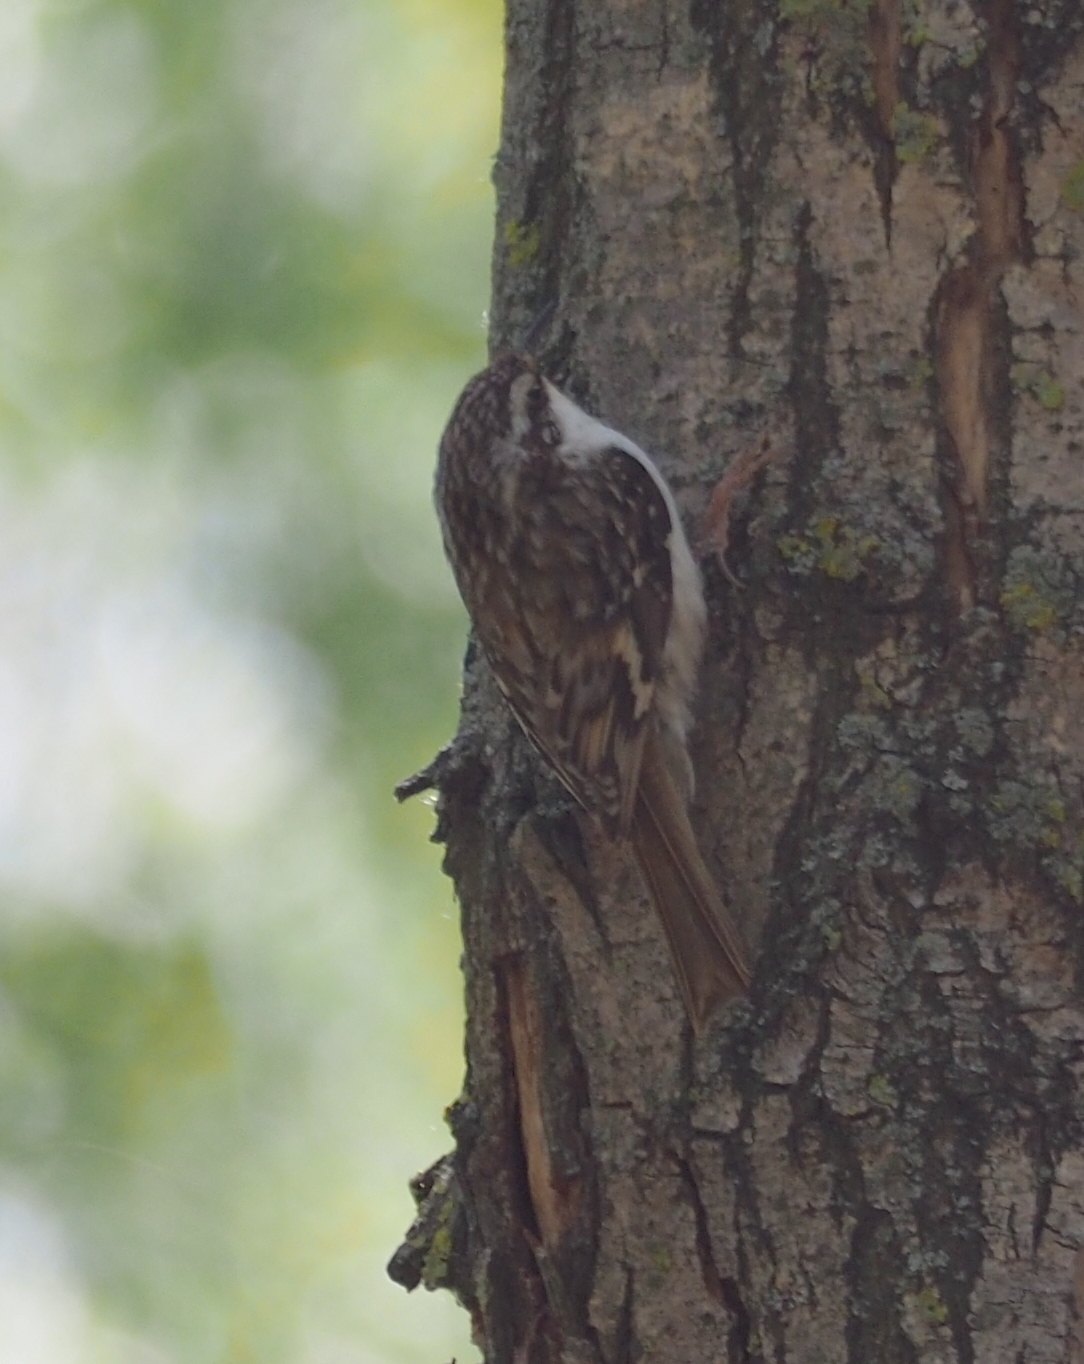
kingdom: Animalia
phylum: Chordata
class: Aves
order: Passeriformes
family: Certhiidae
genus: Certhia
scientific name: Certhia familiaris
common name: Eurasian treecreeper
